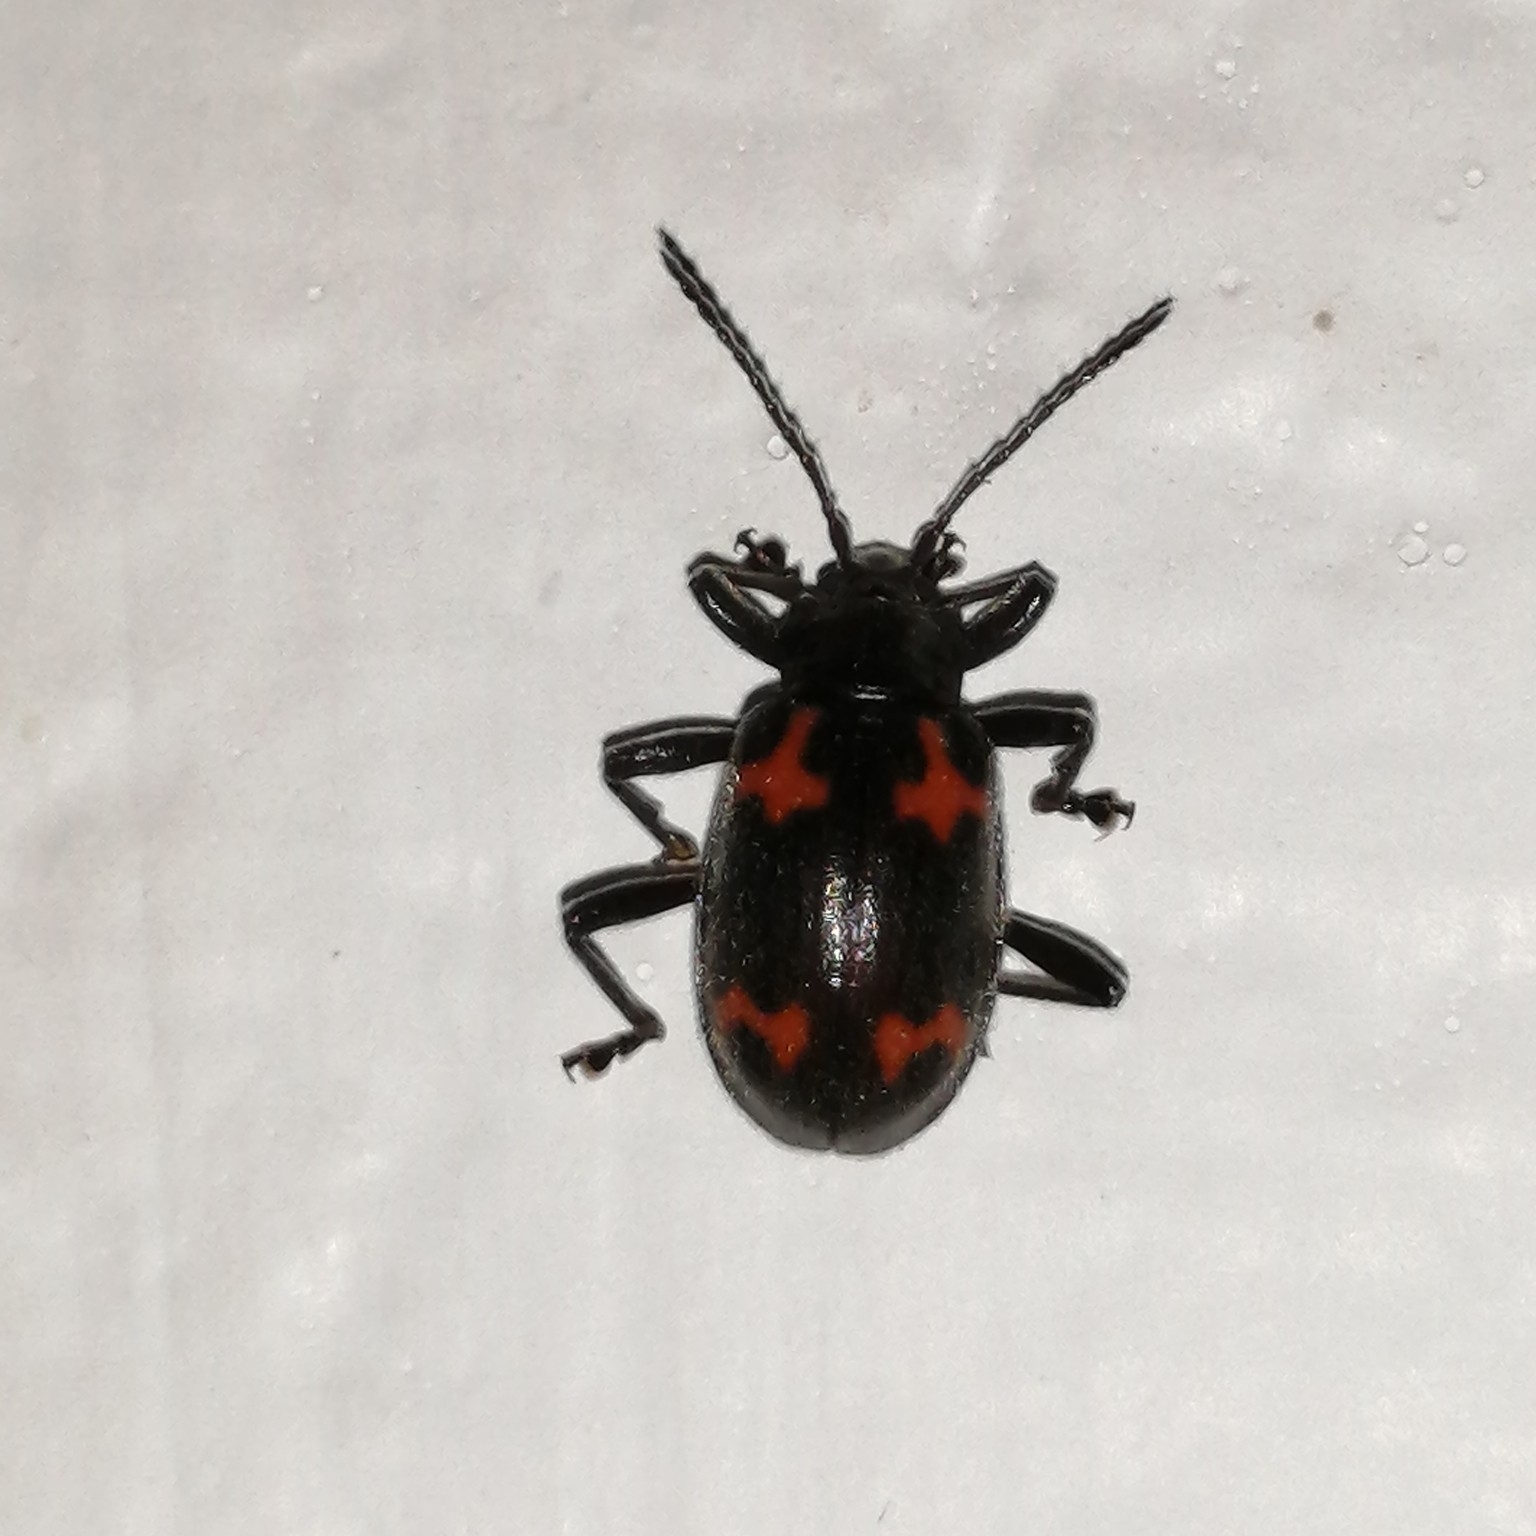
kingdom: Animalia
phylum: Arthropoda
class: Insecta
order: Coleoptera
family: Endomychidae
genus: Parindalmus
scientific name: Parindalmus
